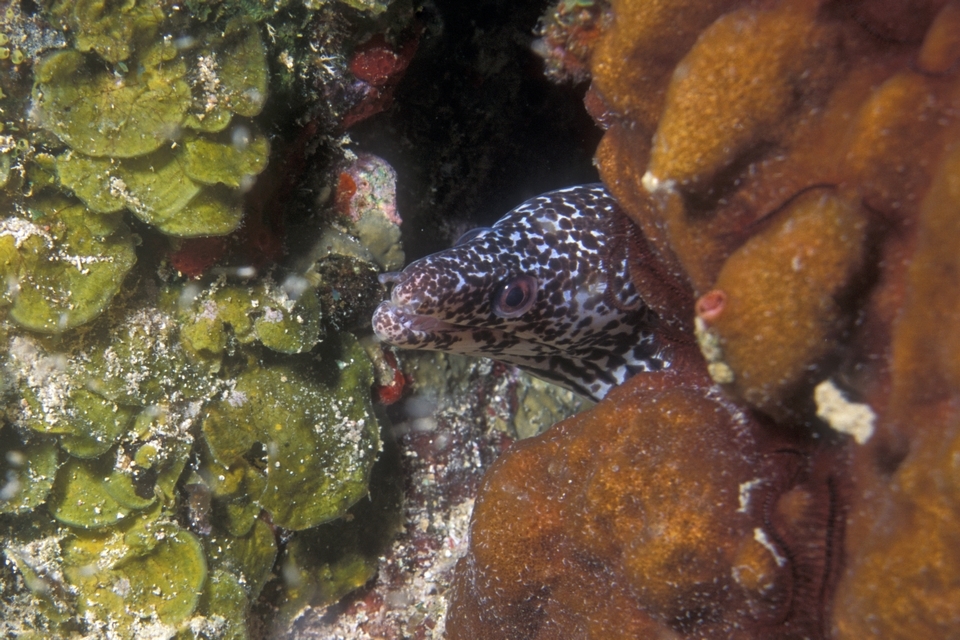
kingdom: Animalia
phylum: Chordata
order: Anguilliformes
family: Muraenidae
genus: Gymnothorax
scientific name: Gymnothorax moringa
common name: Spotted moray
